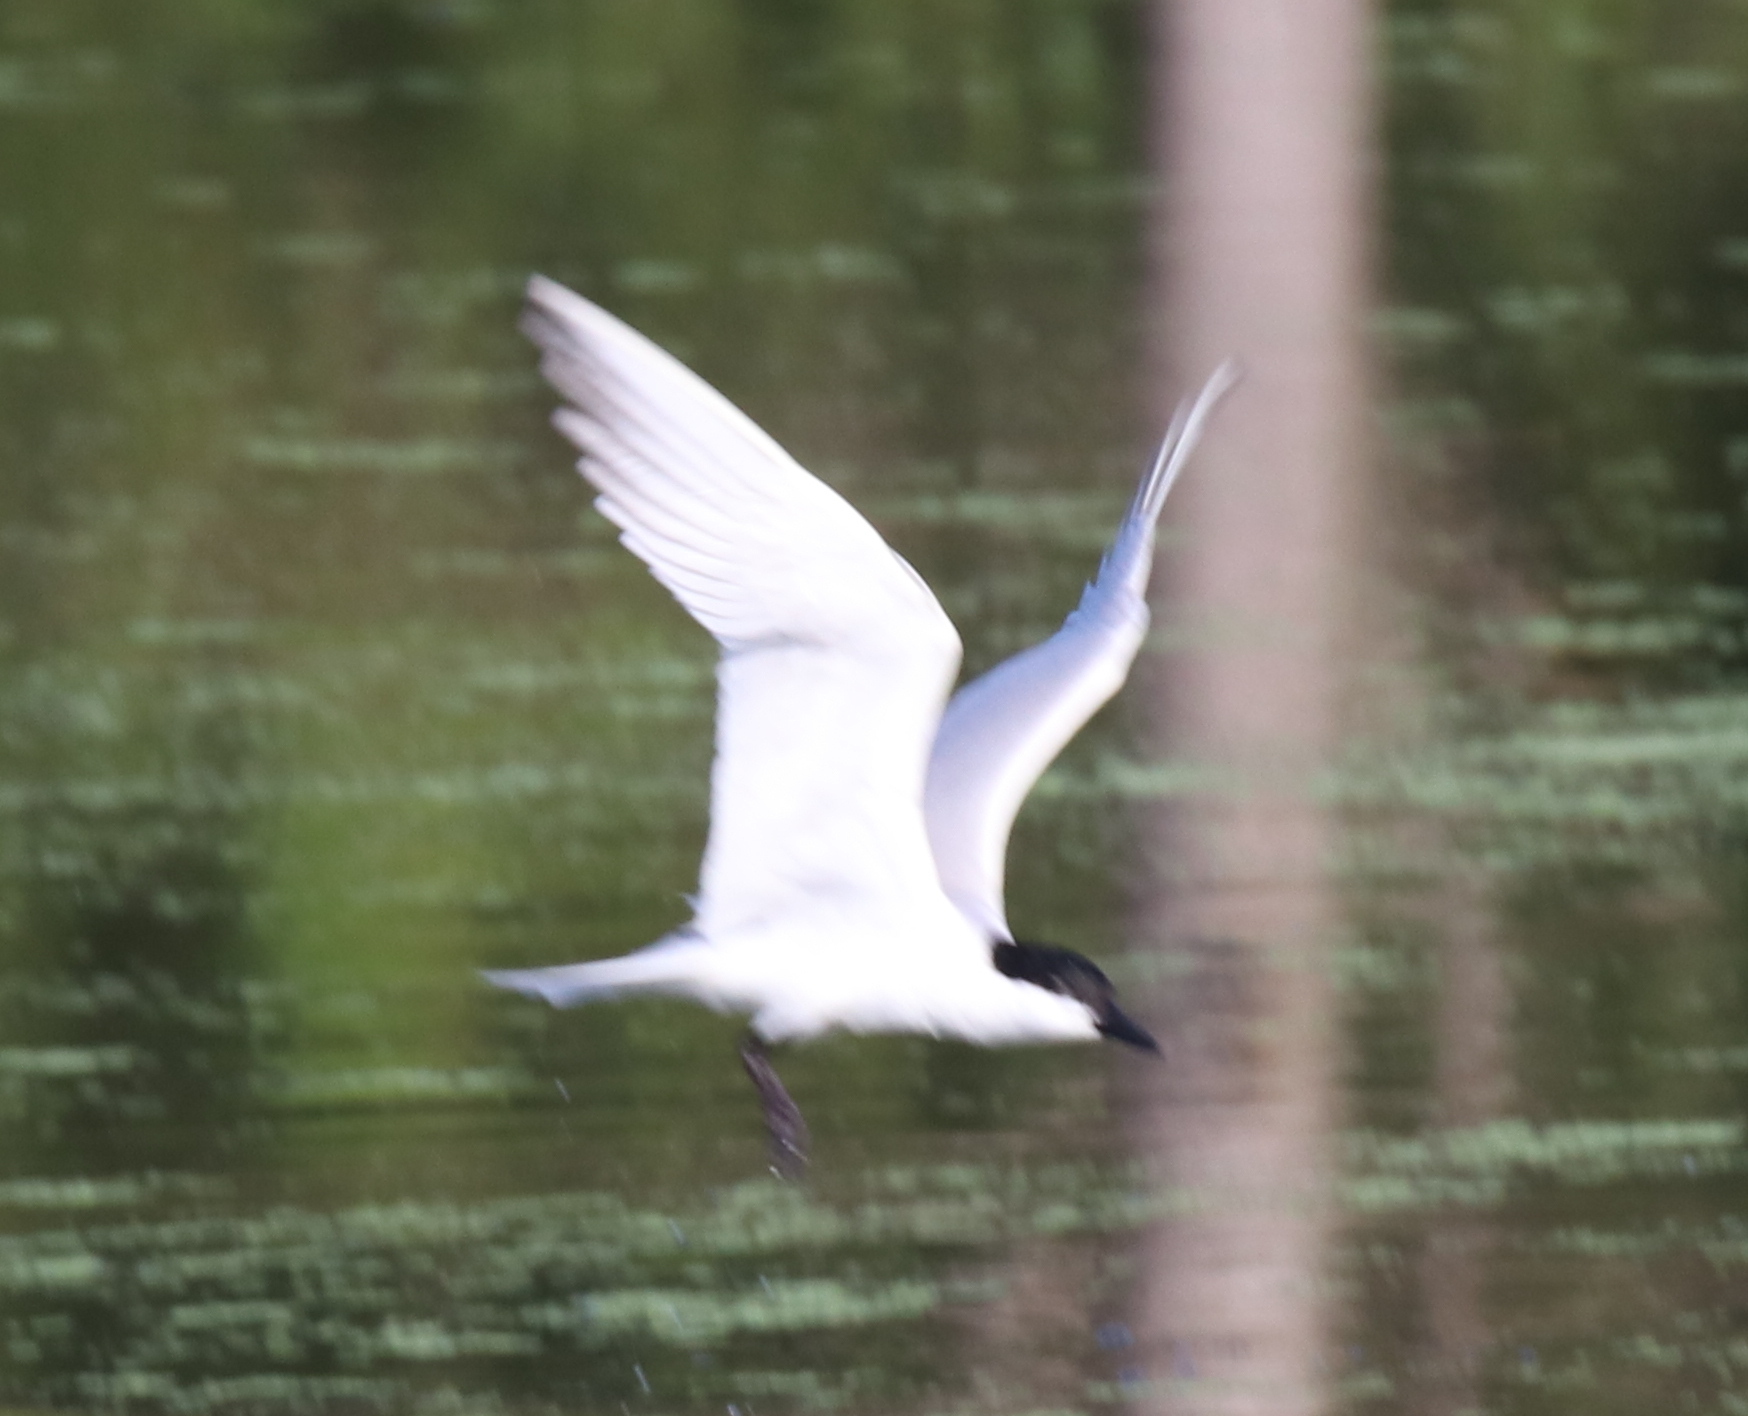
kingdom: Animalia
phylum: Chordata
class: Aves
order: Charadriiformes
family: Laridae
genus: Gelochelidon
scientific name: Gelochelidon nilotica
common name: Gull-billed tern
